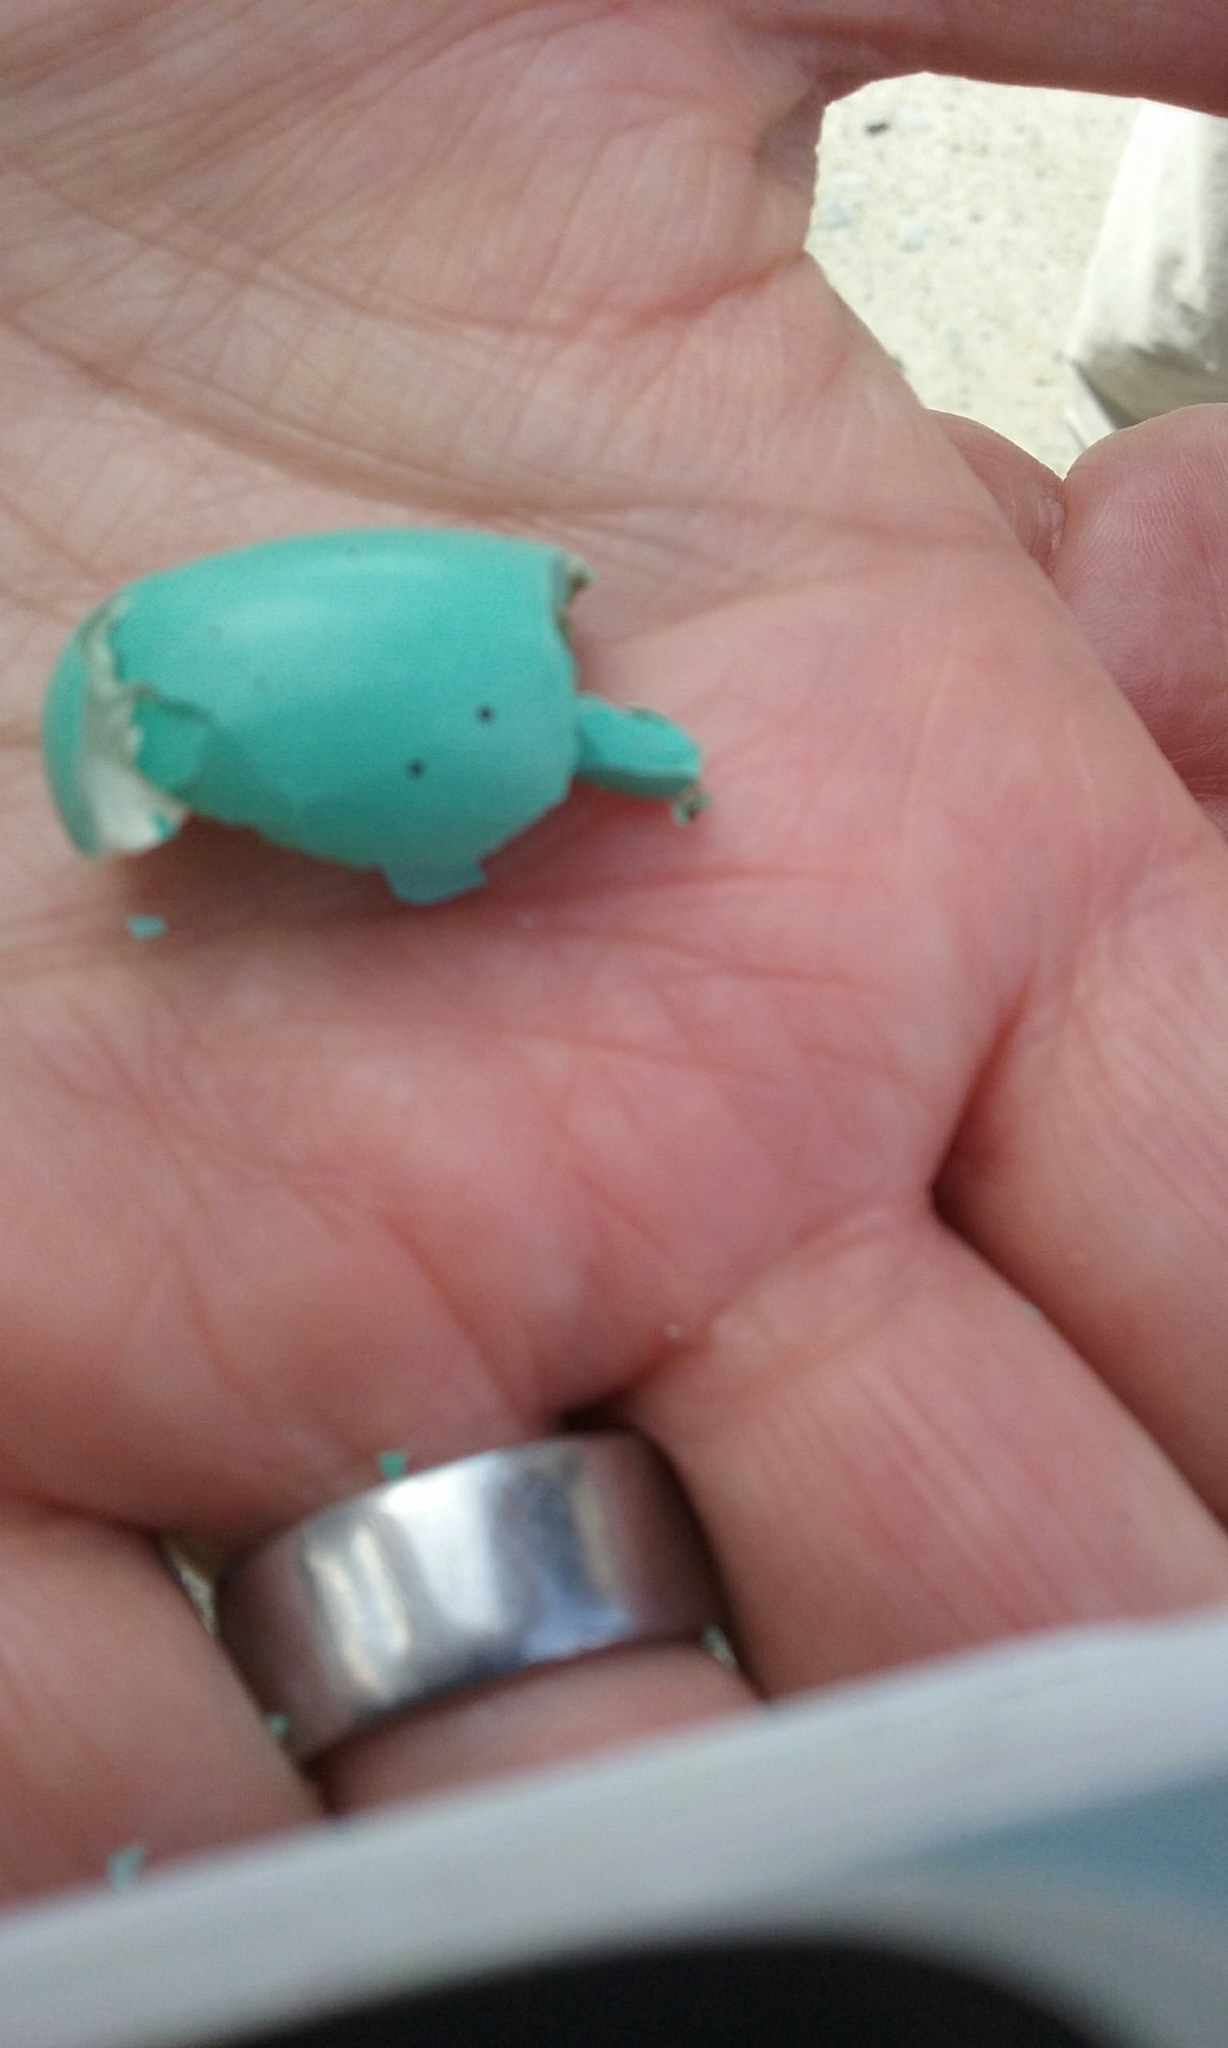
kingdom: Animalia
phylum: Chordata
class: Aves
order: Passeriformes
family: Turdidae
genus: Turdus
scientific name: Turdus philomelos
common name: Song thrush
